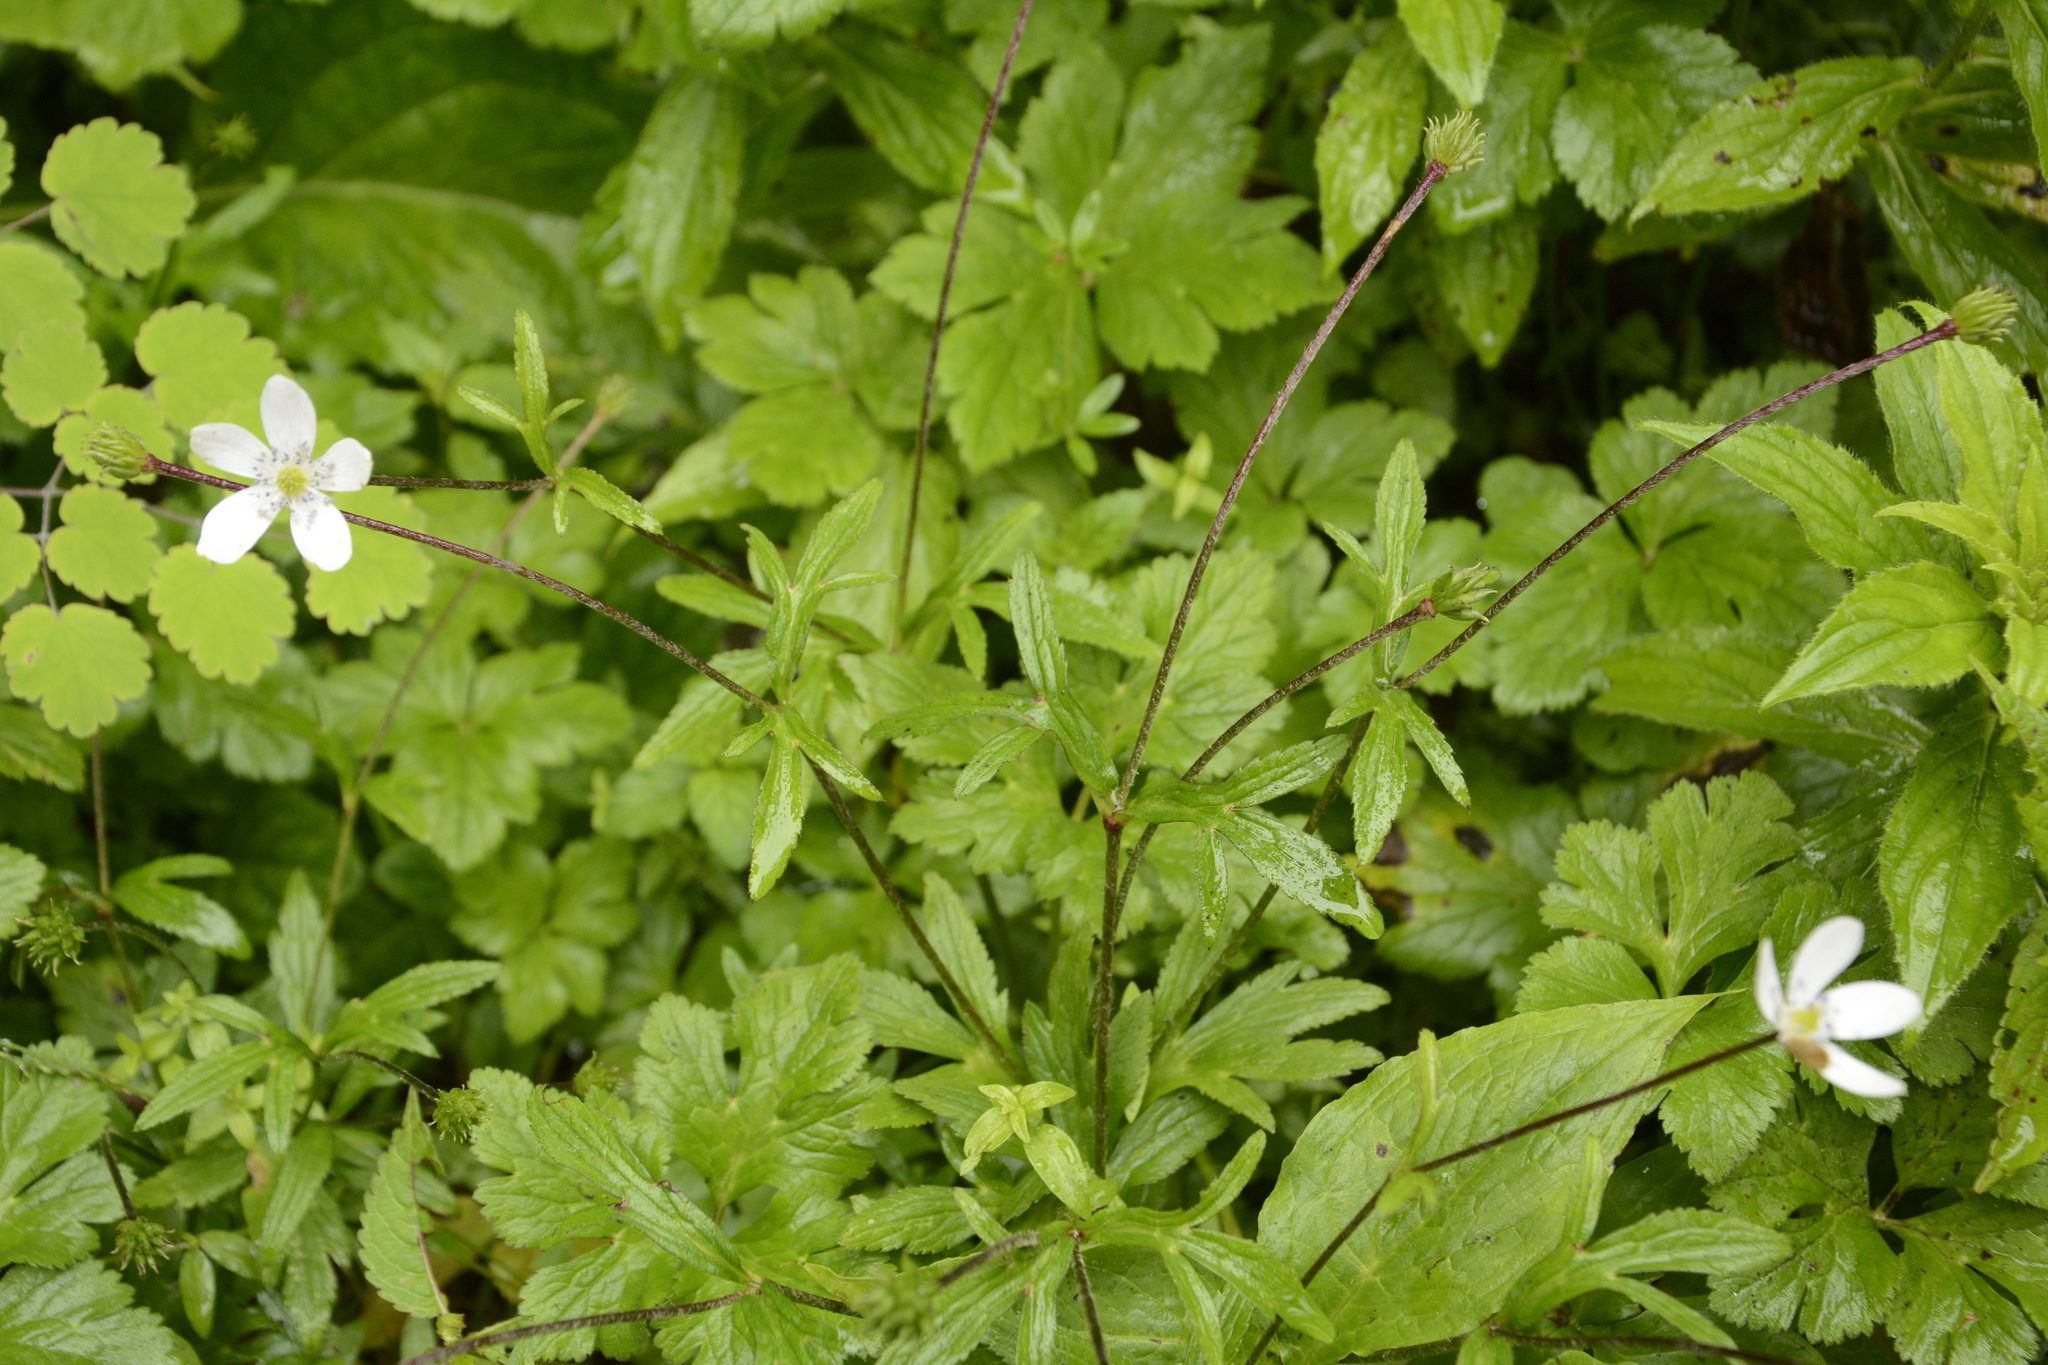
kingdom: Plantae
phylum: Tracheophyta
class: Magnoliopsida
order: Ranunculales
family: Ranunculaceae
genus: Eriocapitella
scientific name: Eriocapitella rivularis
